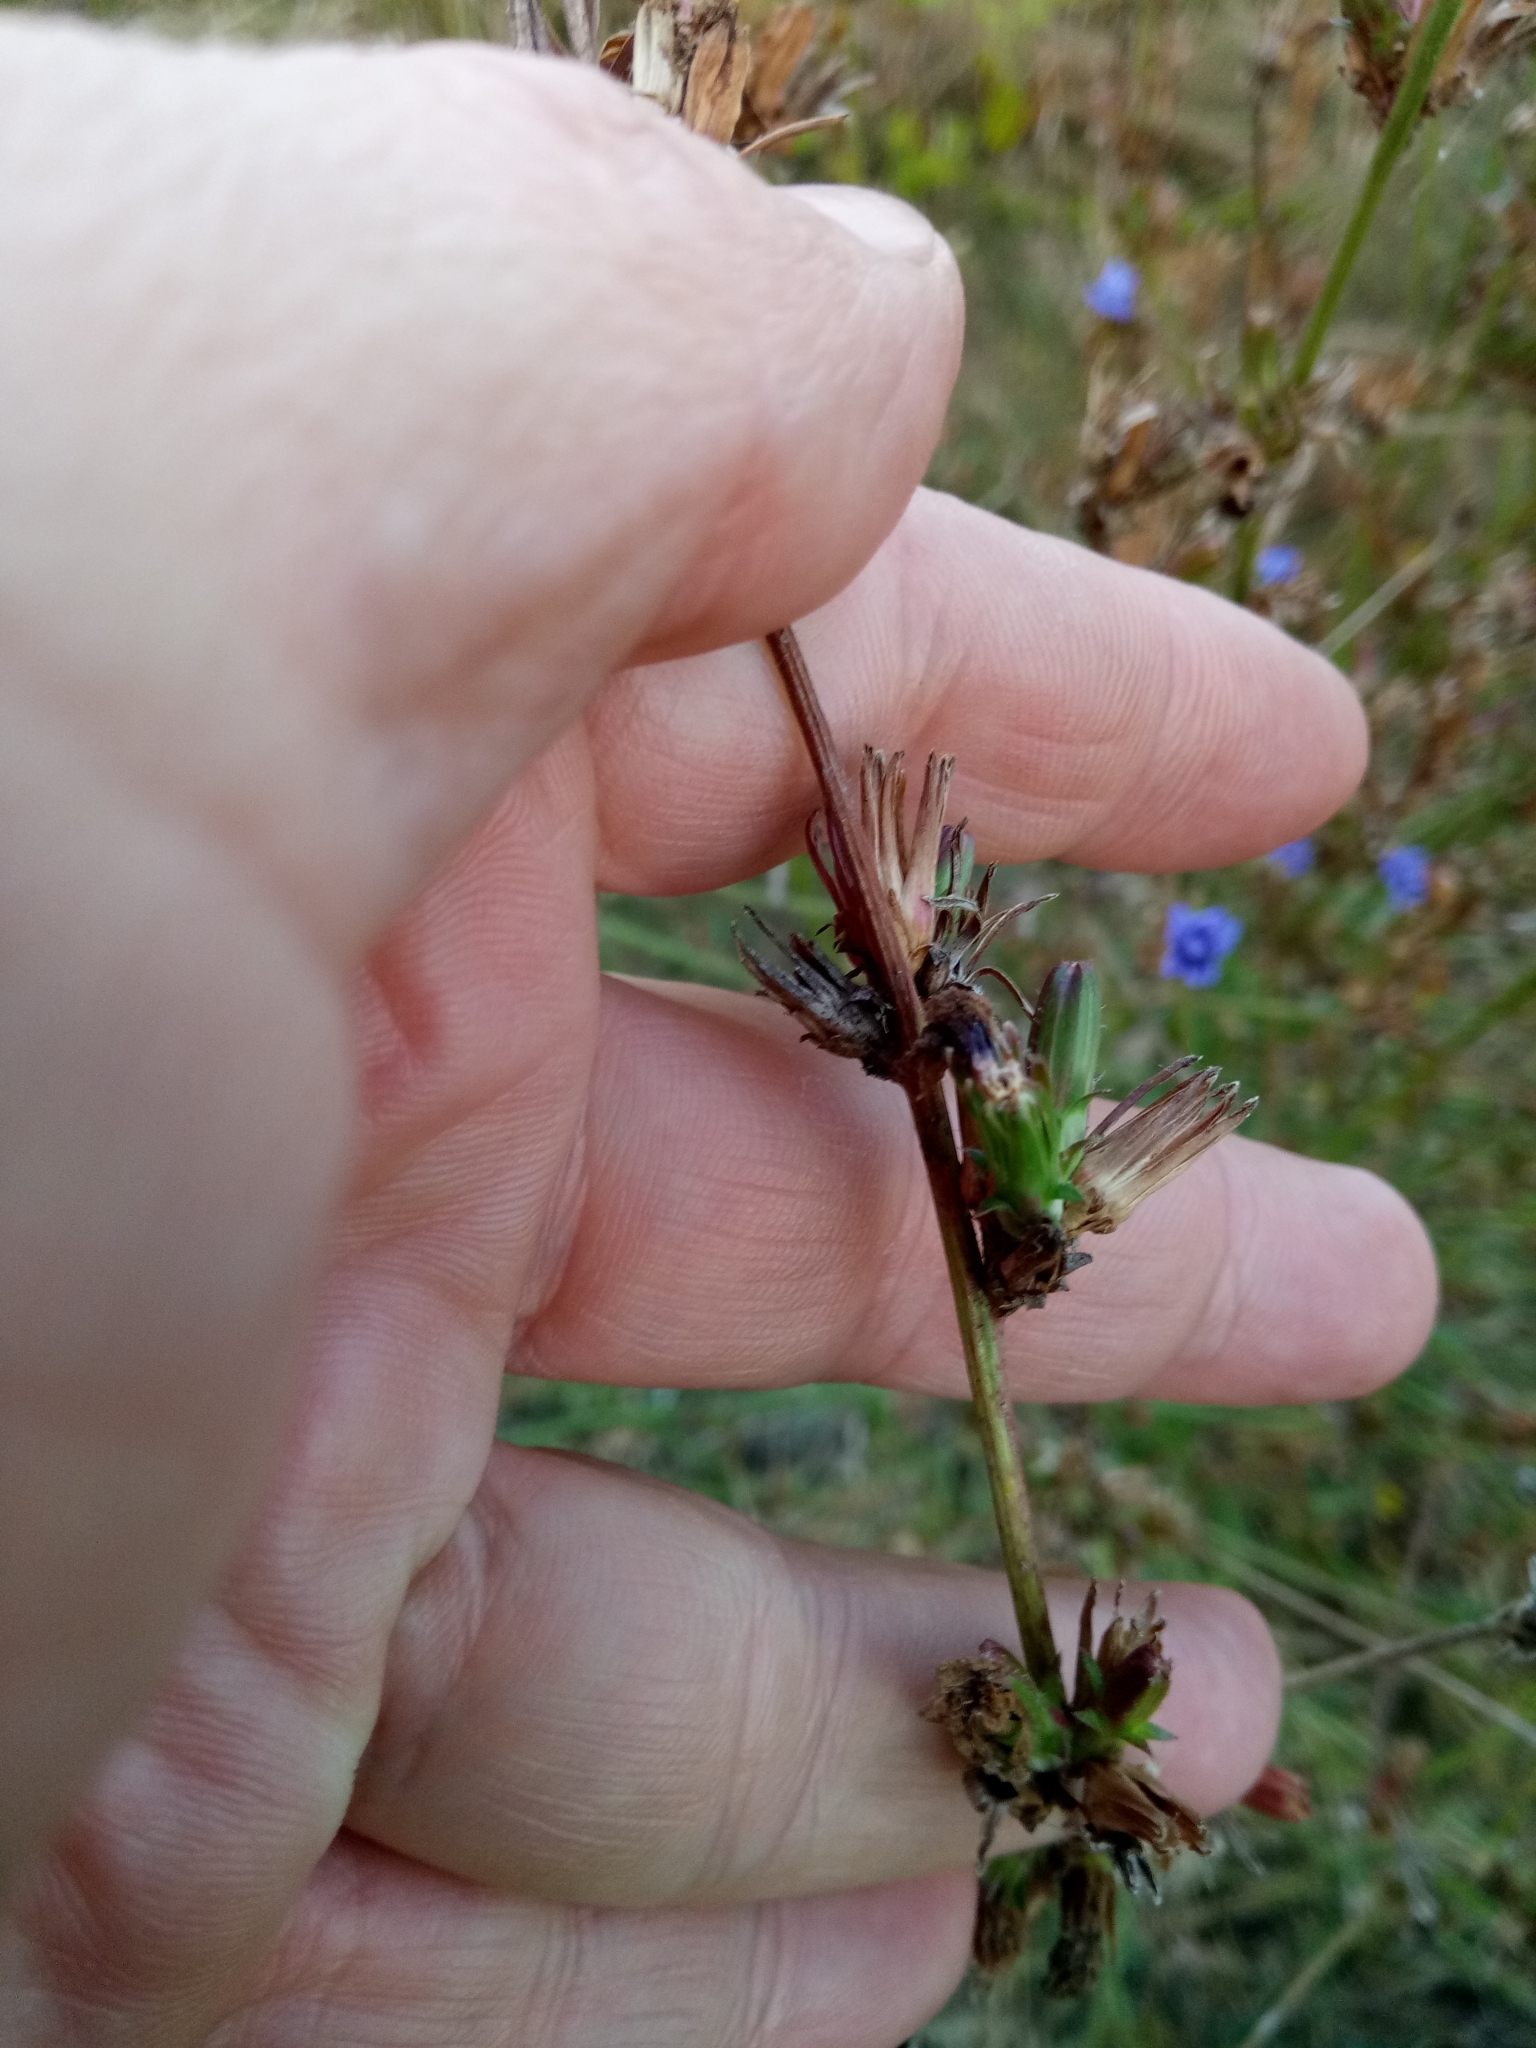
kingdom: Plantae
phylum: Tracheophyta
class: Magnoliopsida
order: Asterales
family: Asteraceae
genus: Cichorium
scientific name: Cichorium intybus
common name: Chicory
